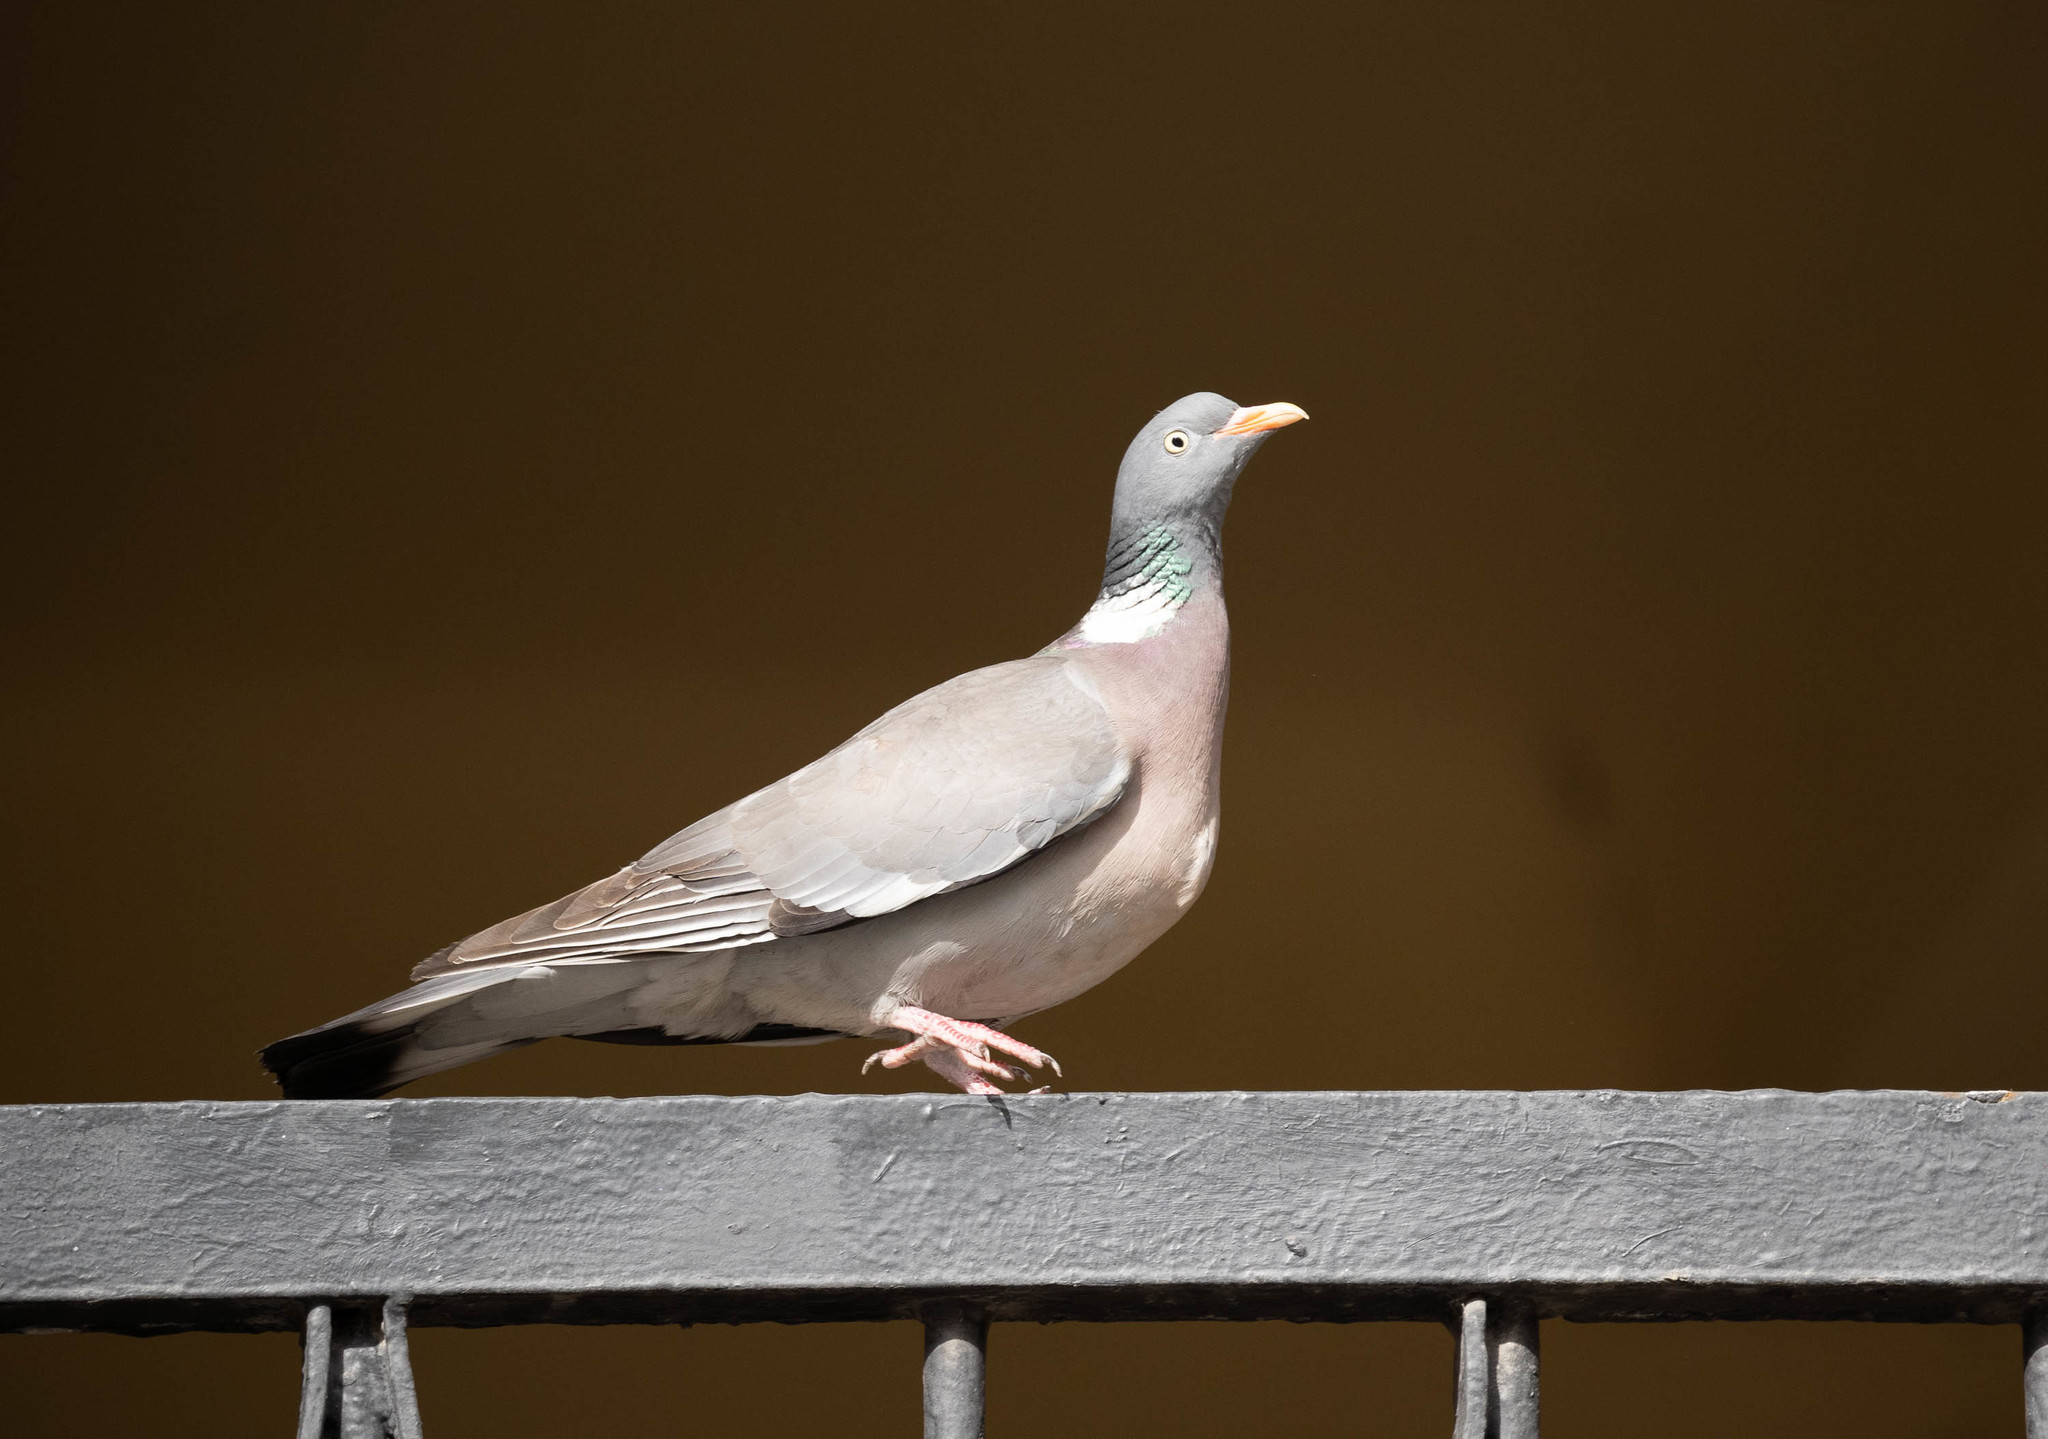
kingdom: Animalia
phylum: Chordata
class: Aves
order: Columbiformes
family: Columbidae
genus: Columba
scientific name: Columba palumbus
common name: Common wood pigeon
